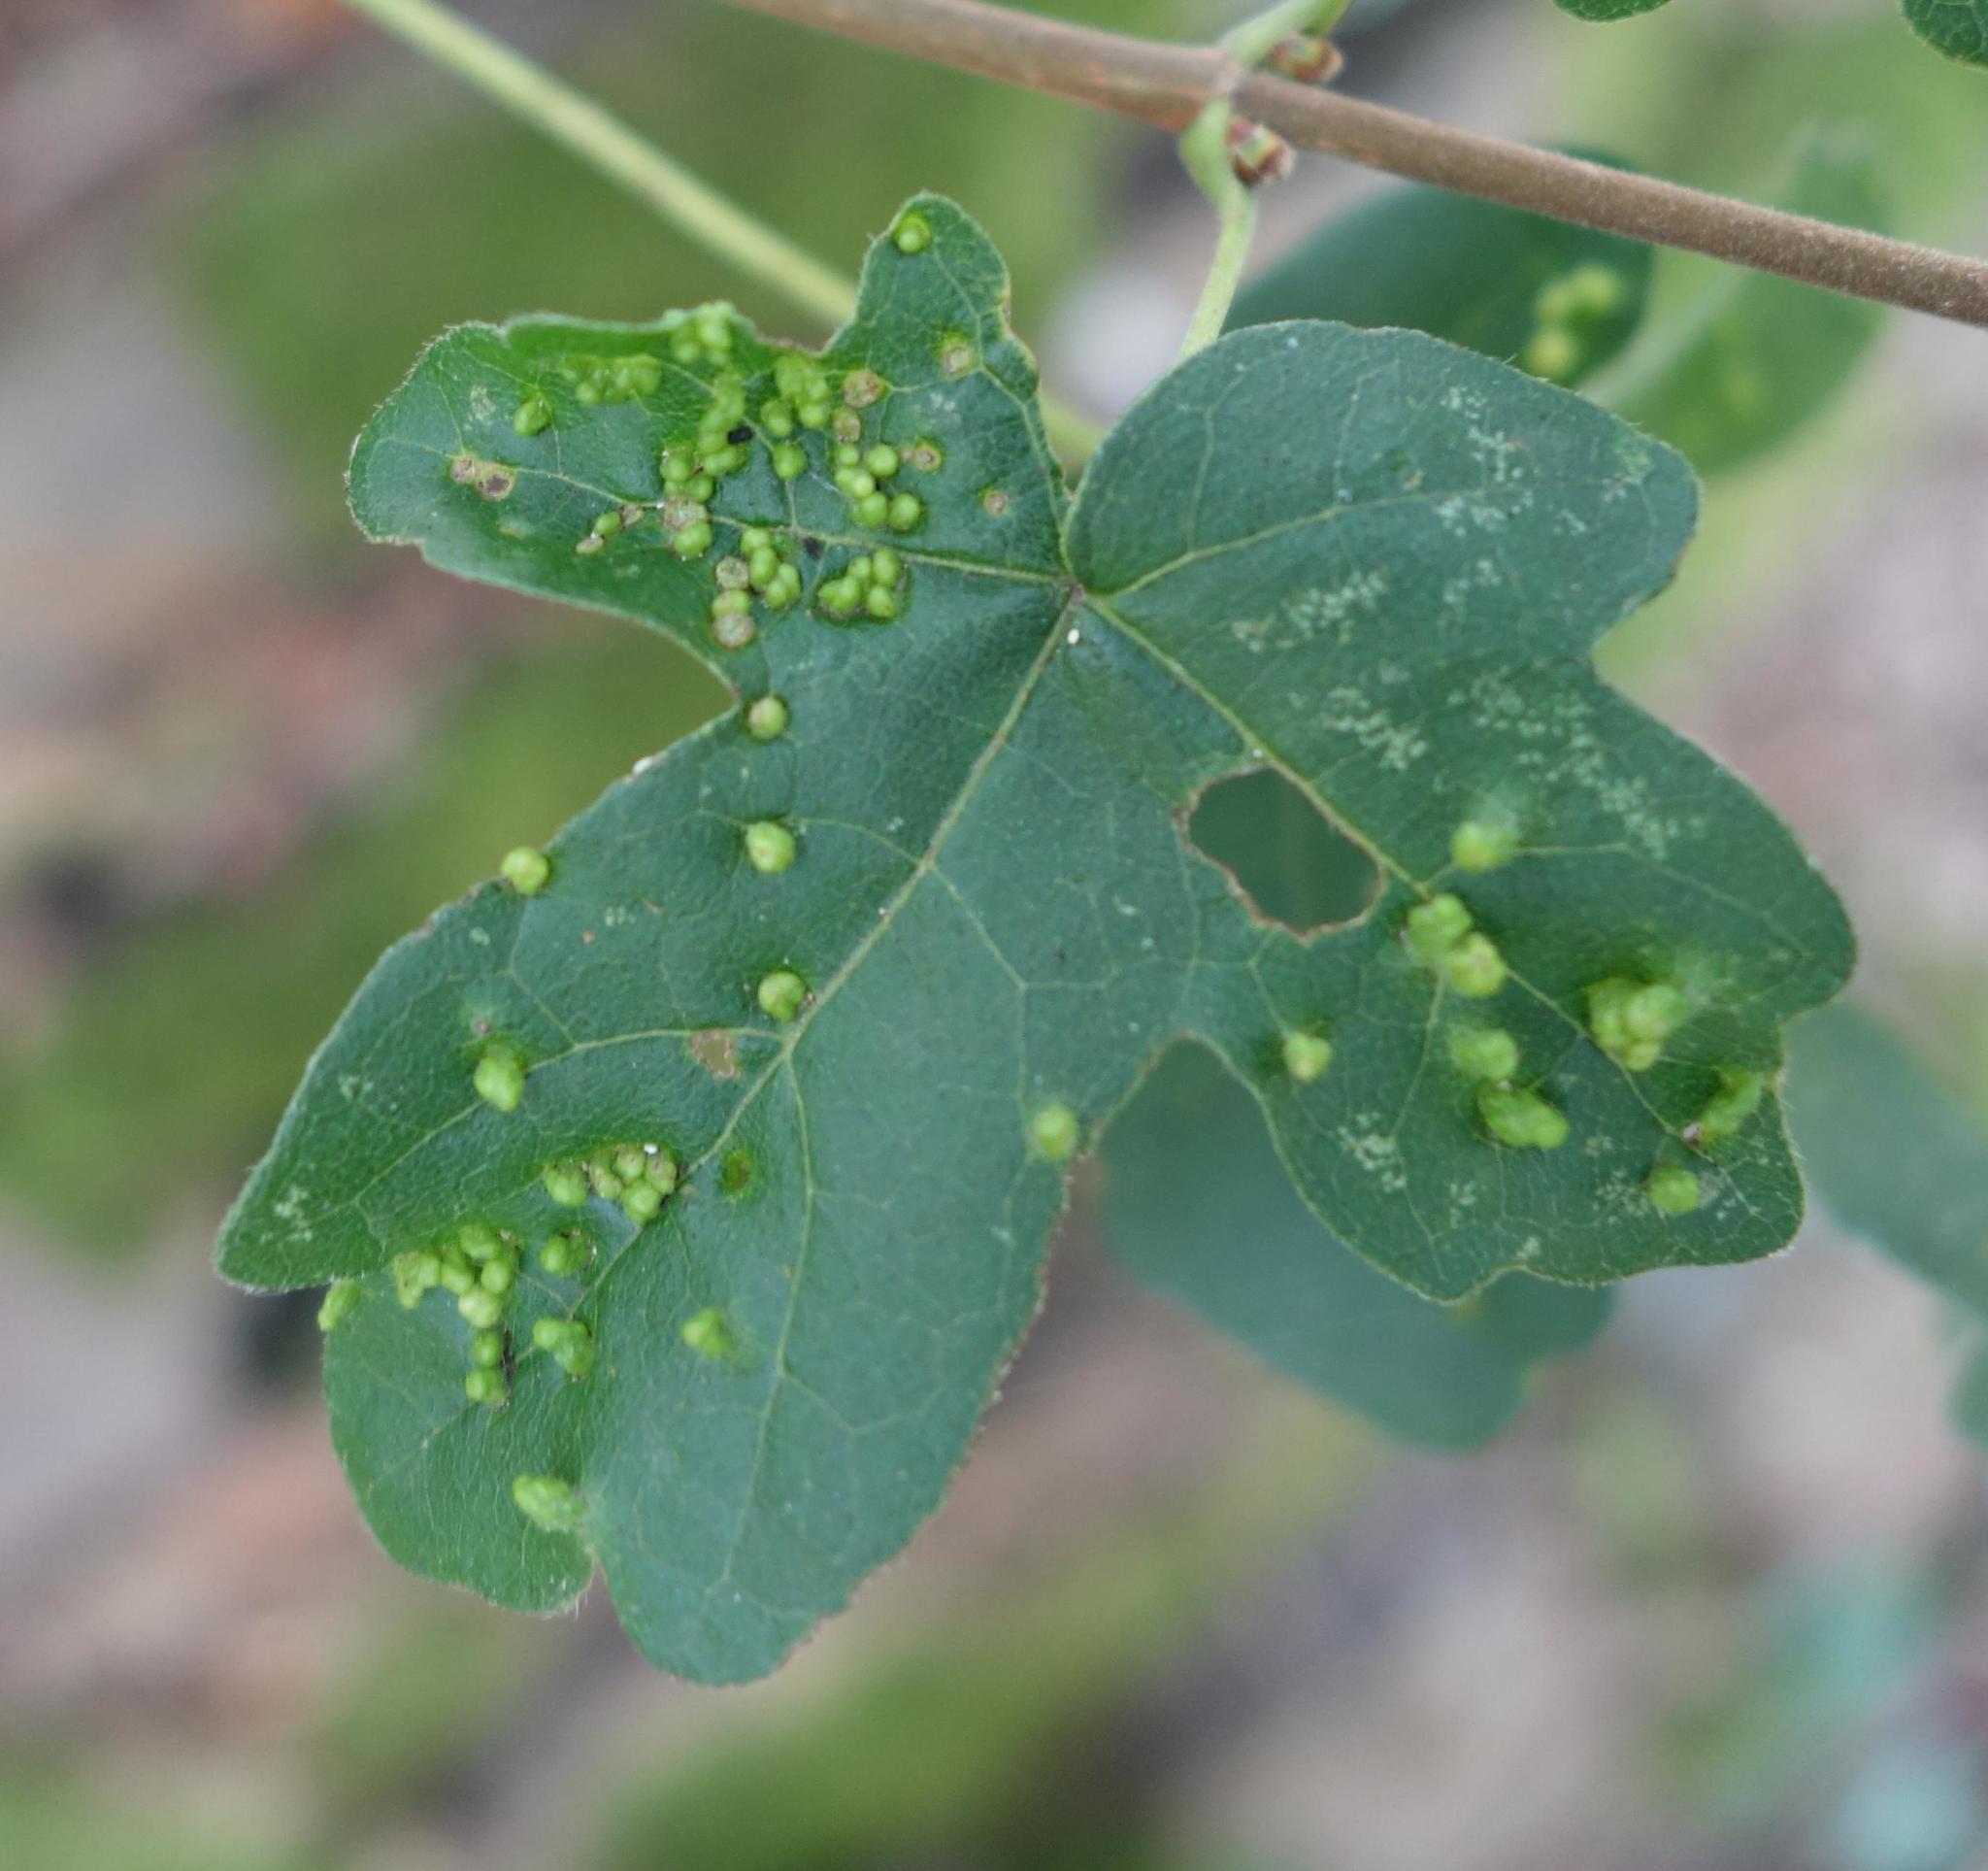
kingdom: Animalia
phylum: Arthropoda
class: Arachnida
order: Trombidiformes
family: Eriophyidae
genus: Aceria
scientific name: Aceria myriadeum
